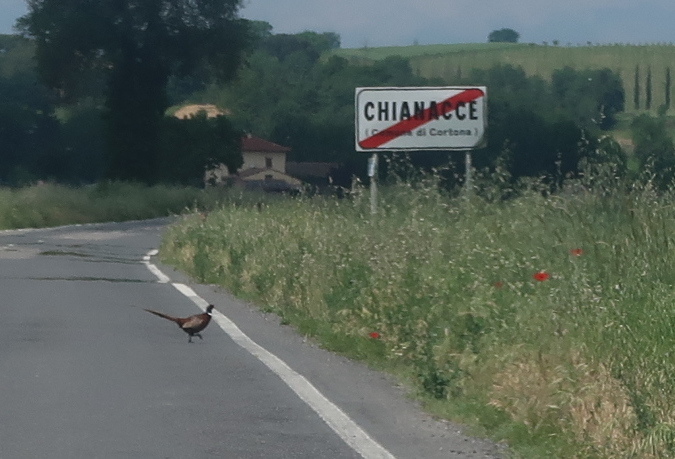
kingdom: Animalia
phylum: Chordata
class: Aves
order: Galliformes
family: Phasianidae
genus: Phasianus
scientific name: Phasianus colchicus
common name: Common pheasant
